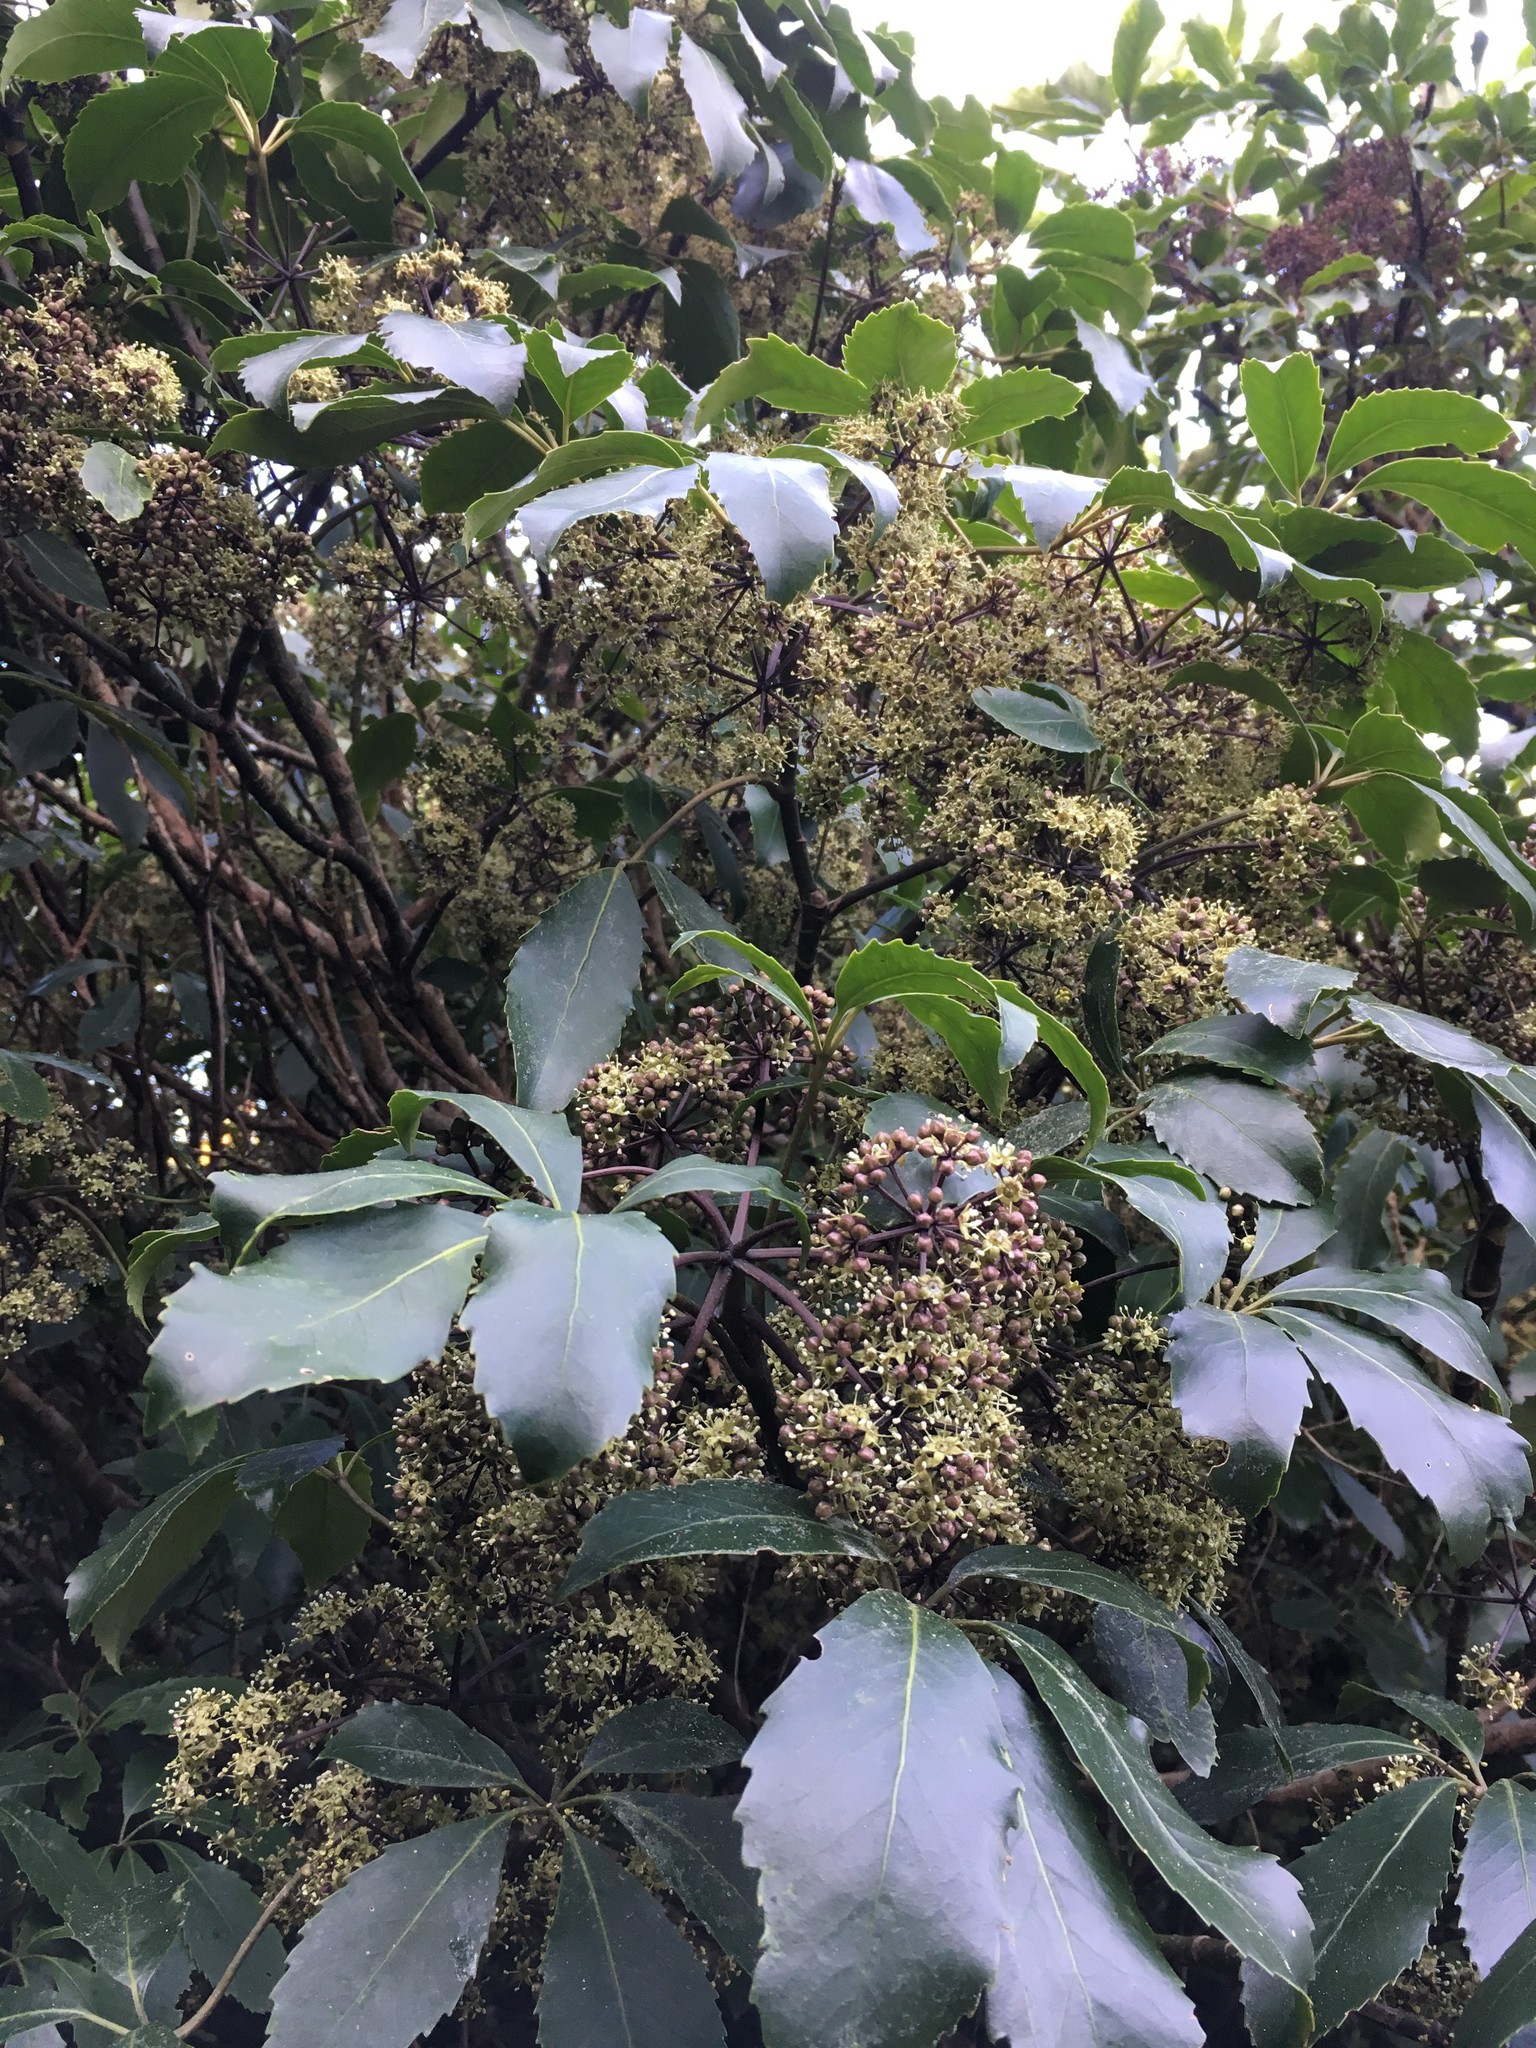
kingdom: Plantae
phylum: Tracheophyta
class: Magnoliopsida
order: Apiales
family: Araliaceae
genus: Neopanax
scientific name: Neopanax arboreus
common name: Five-fingers
